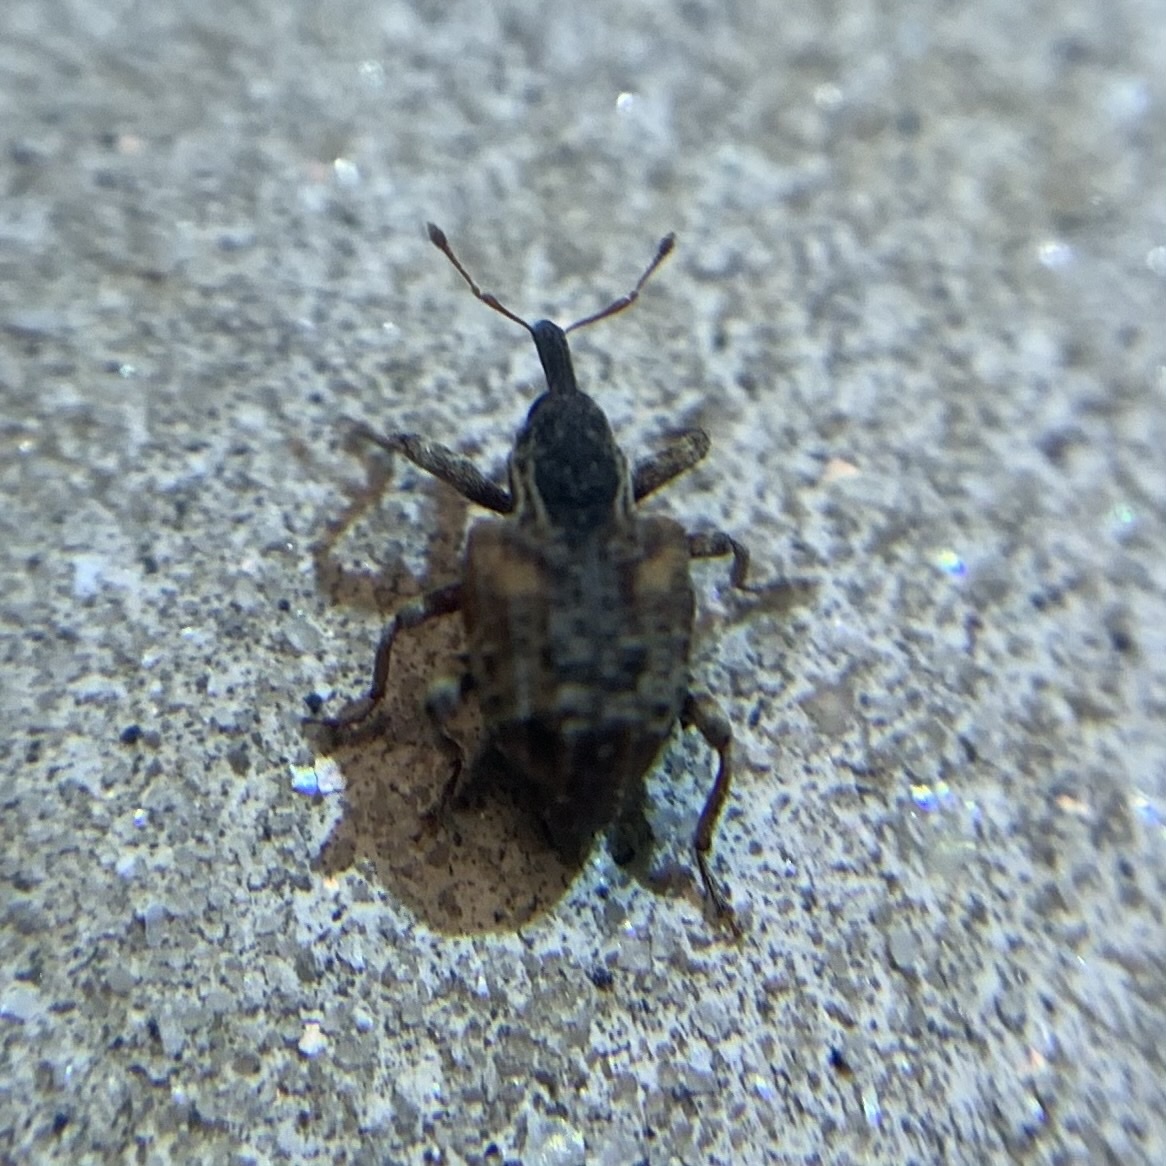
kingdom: Animalia
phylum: Arthropoda
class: Insecta
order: Coleoptera
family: Curculionidae
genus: Conotrachelus
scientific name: Conotrachelus anaglypticus
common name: Cambium curculio
